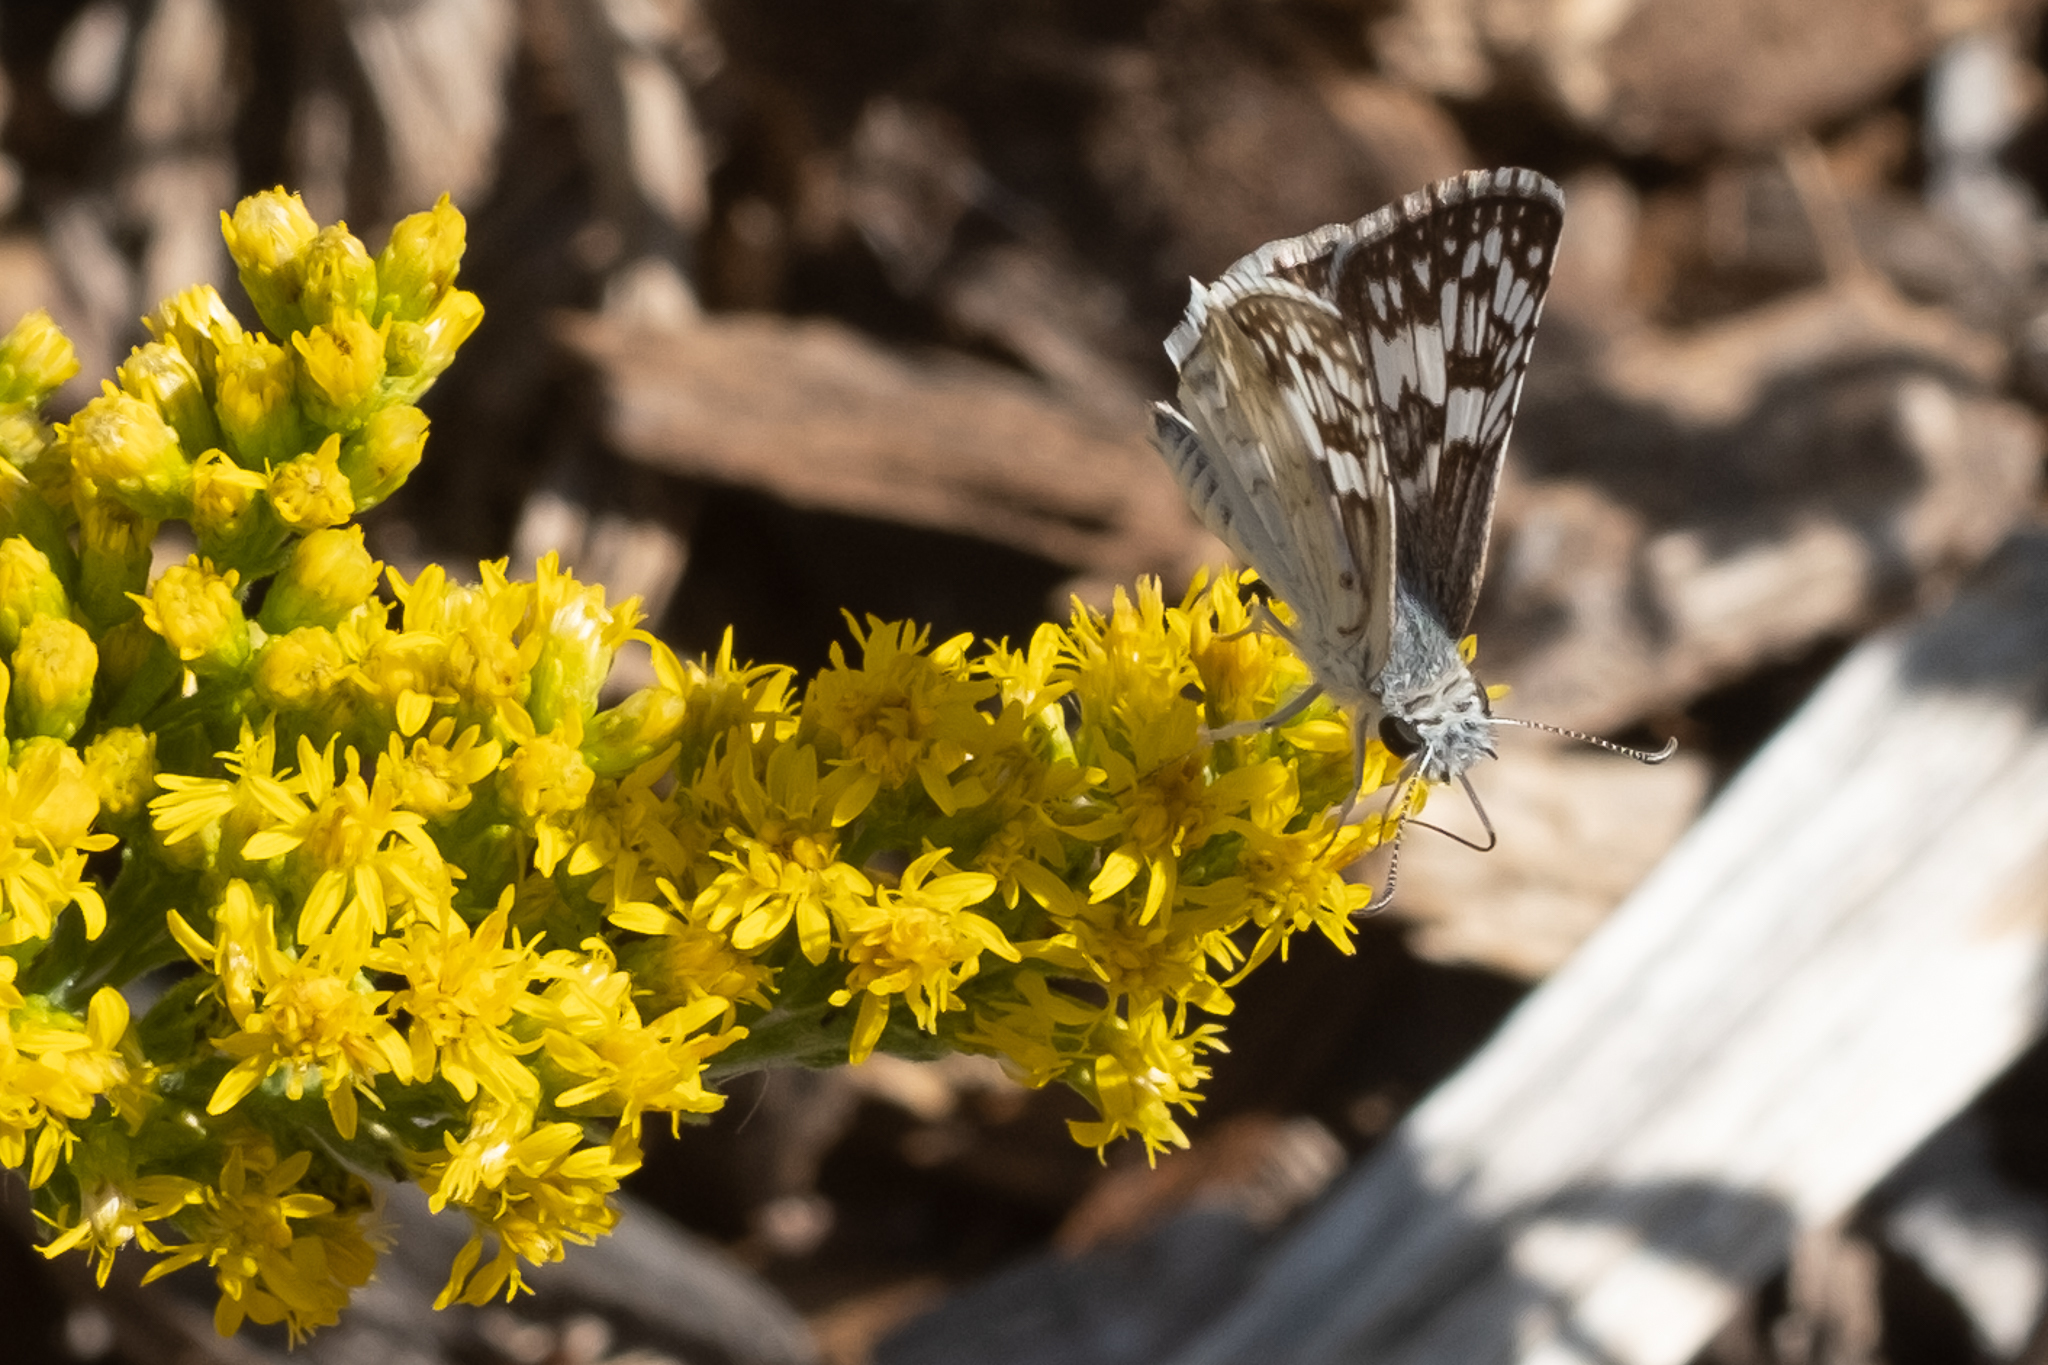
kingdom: Animalia
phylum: Arthropoda
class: Insecta
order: Lepidoptera
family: Hesperiidae
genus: Burnsius
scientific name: Burnsius albezens
